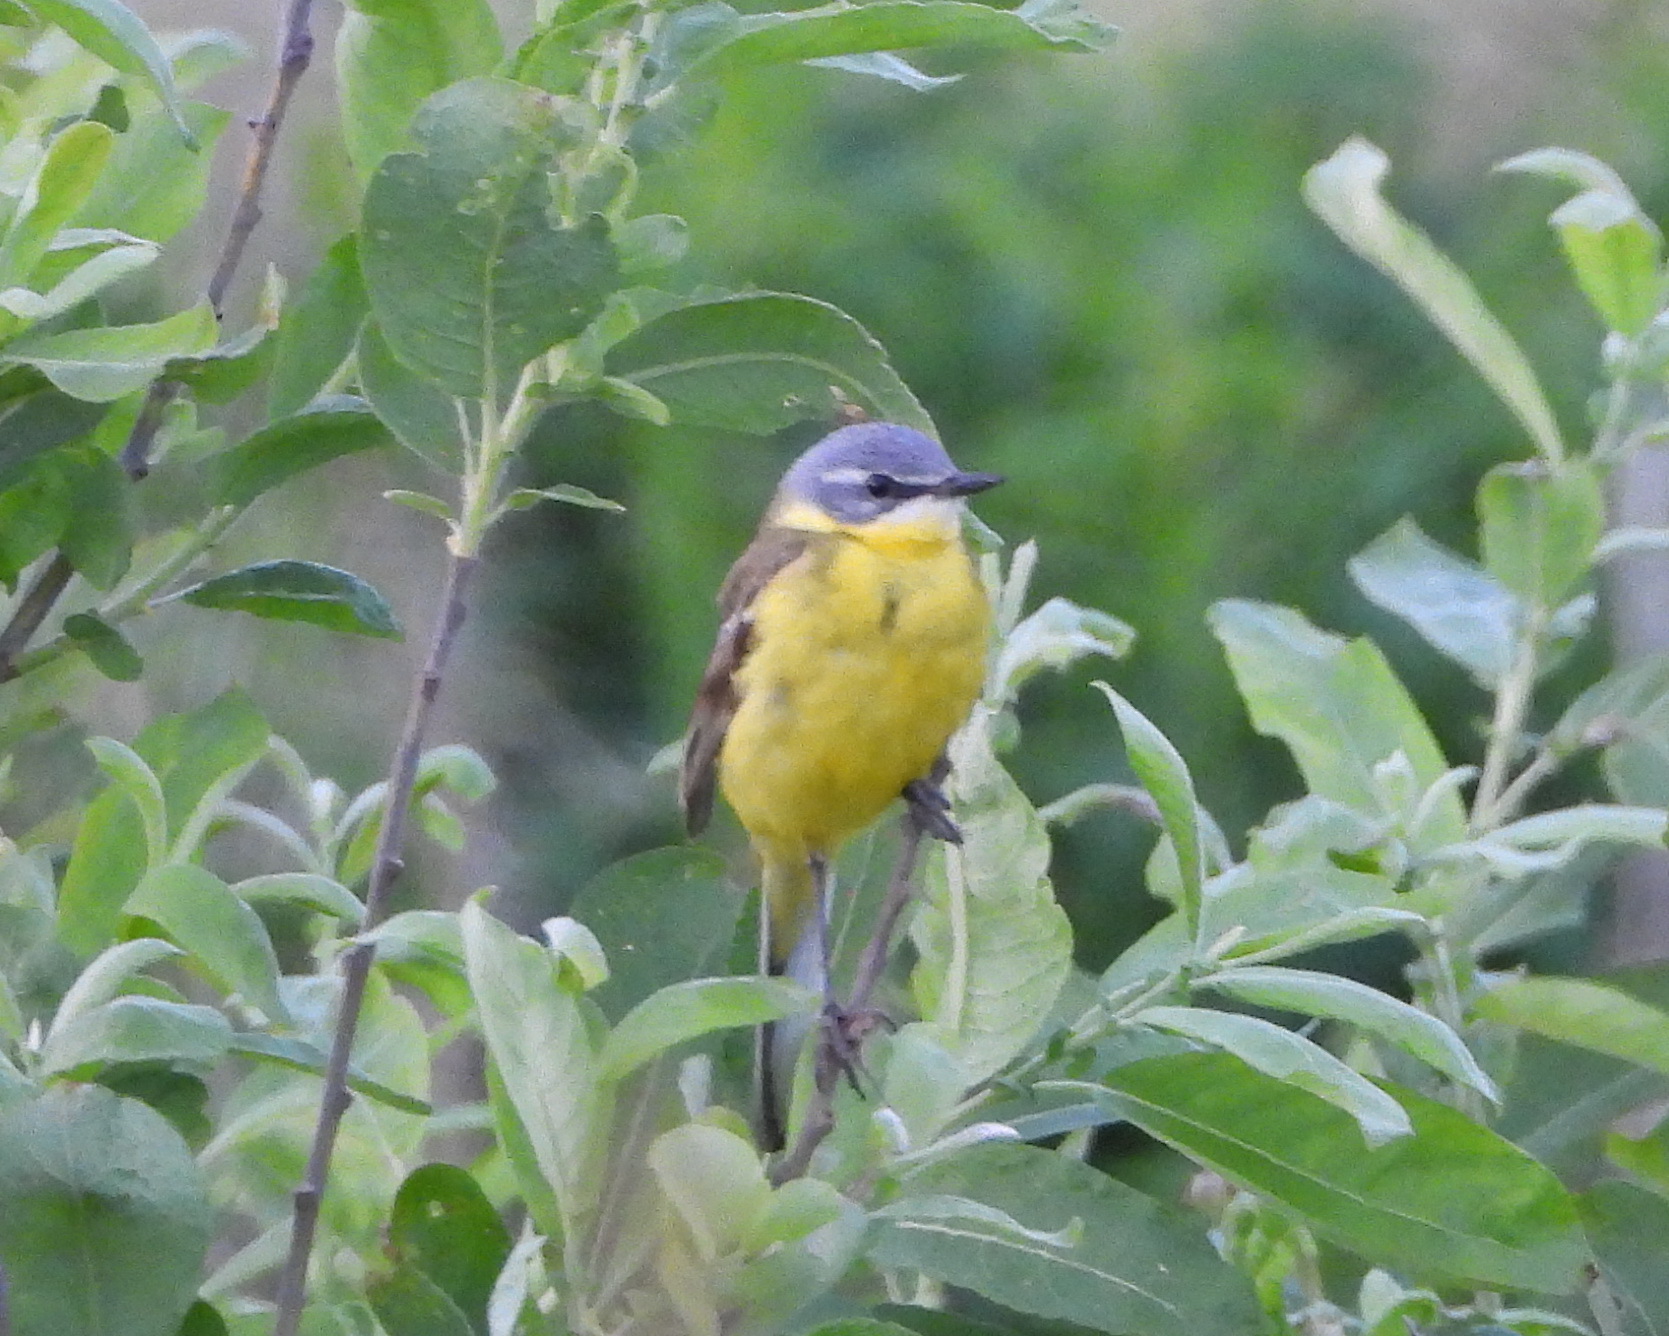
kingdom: Animalia
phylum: Chordata
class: Aves
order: Passeriformes
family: Motacillidae
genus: Motacilla
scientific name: Motacilla flava
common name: Western yellow wagtail
